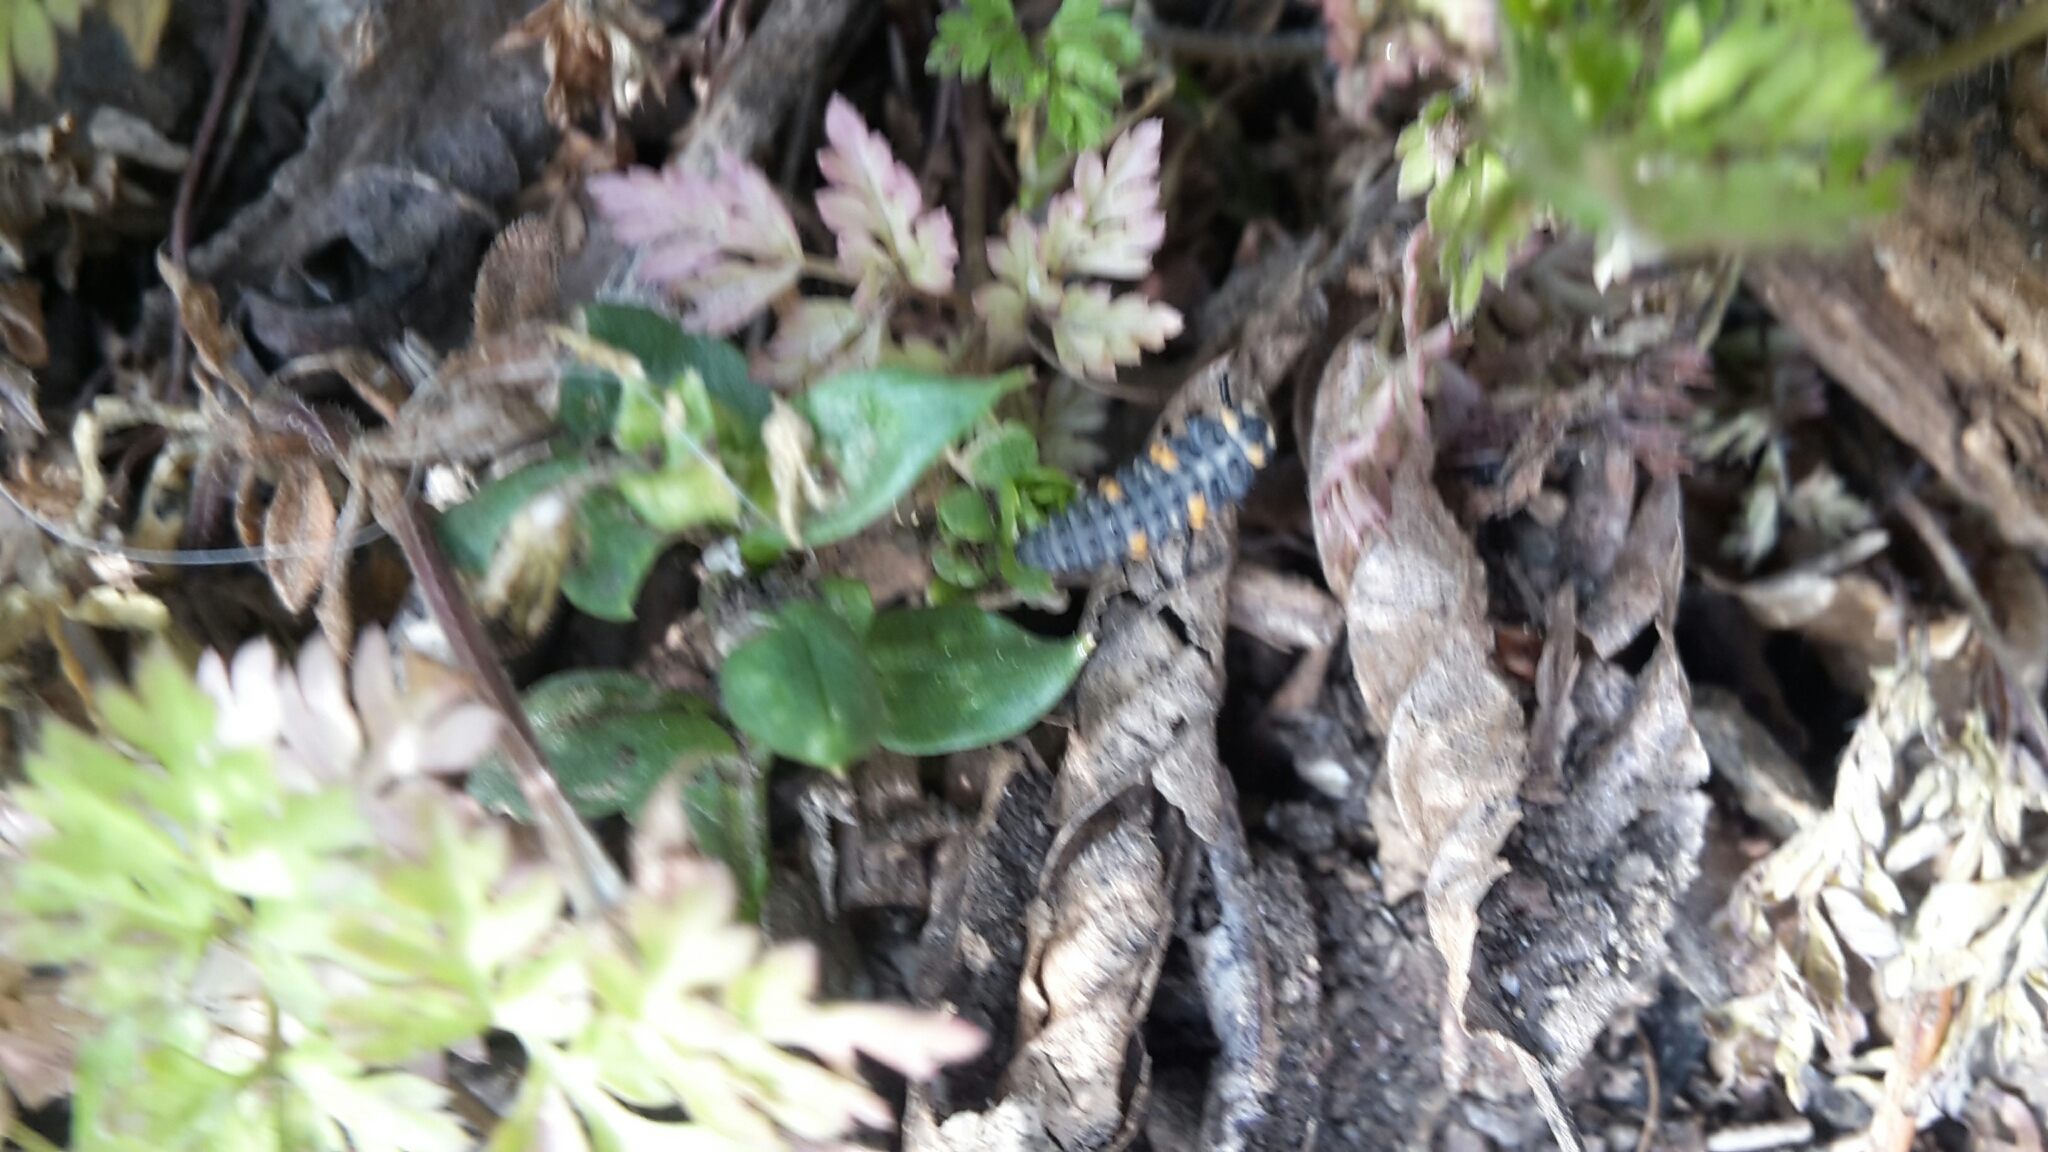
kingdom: Animalia
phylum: Arthropoda
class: Insecta
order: Coleoptera
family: Coccinellidae
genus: Coccinella
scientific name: Coccinella septempunctata
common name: Sevenspotted lady beetle
